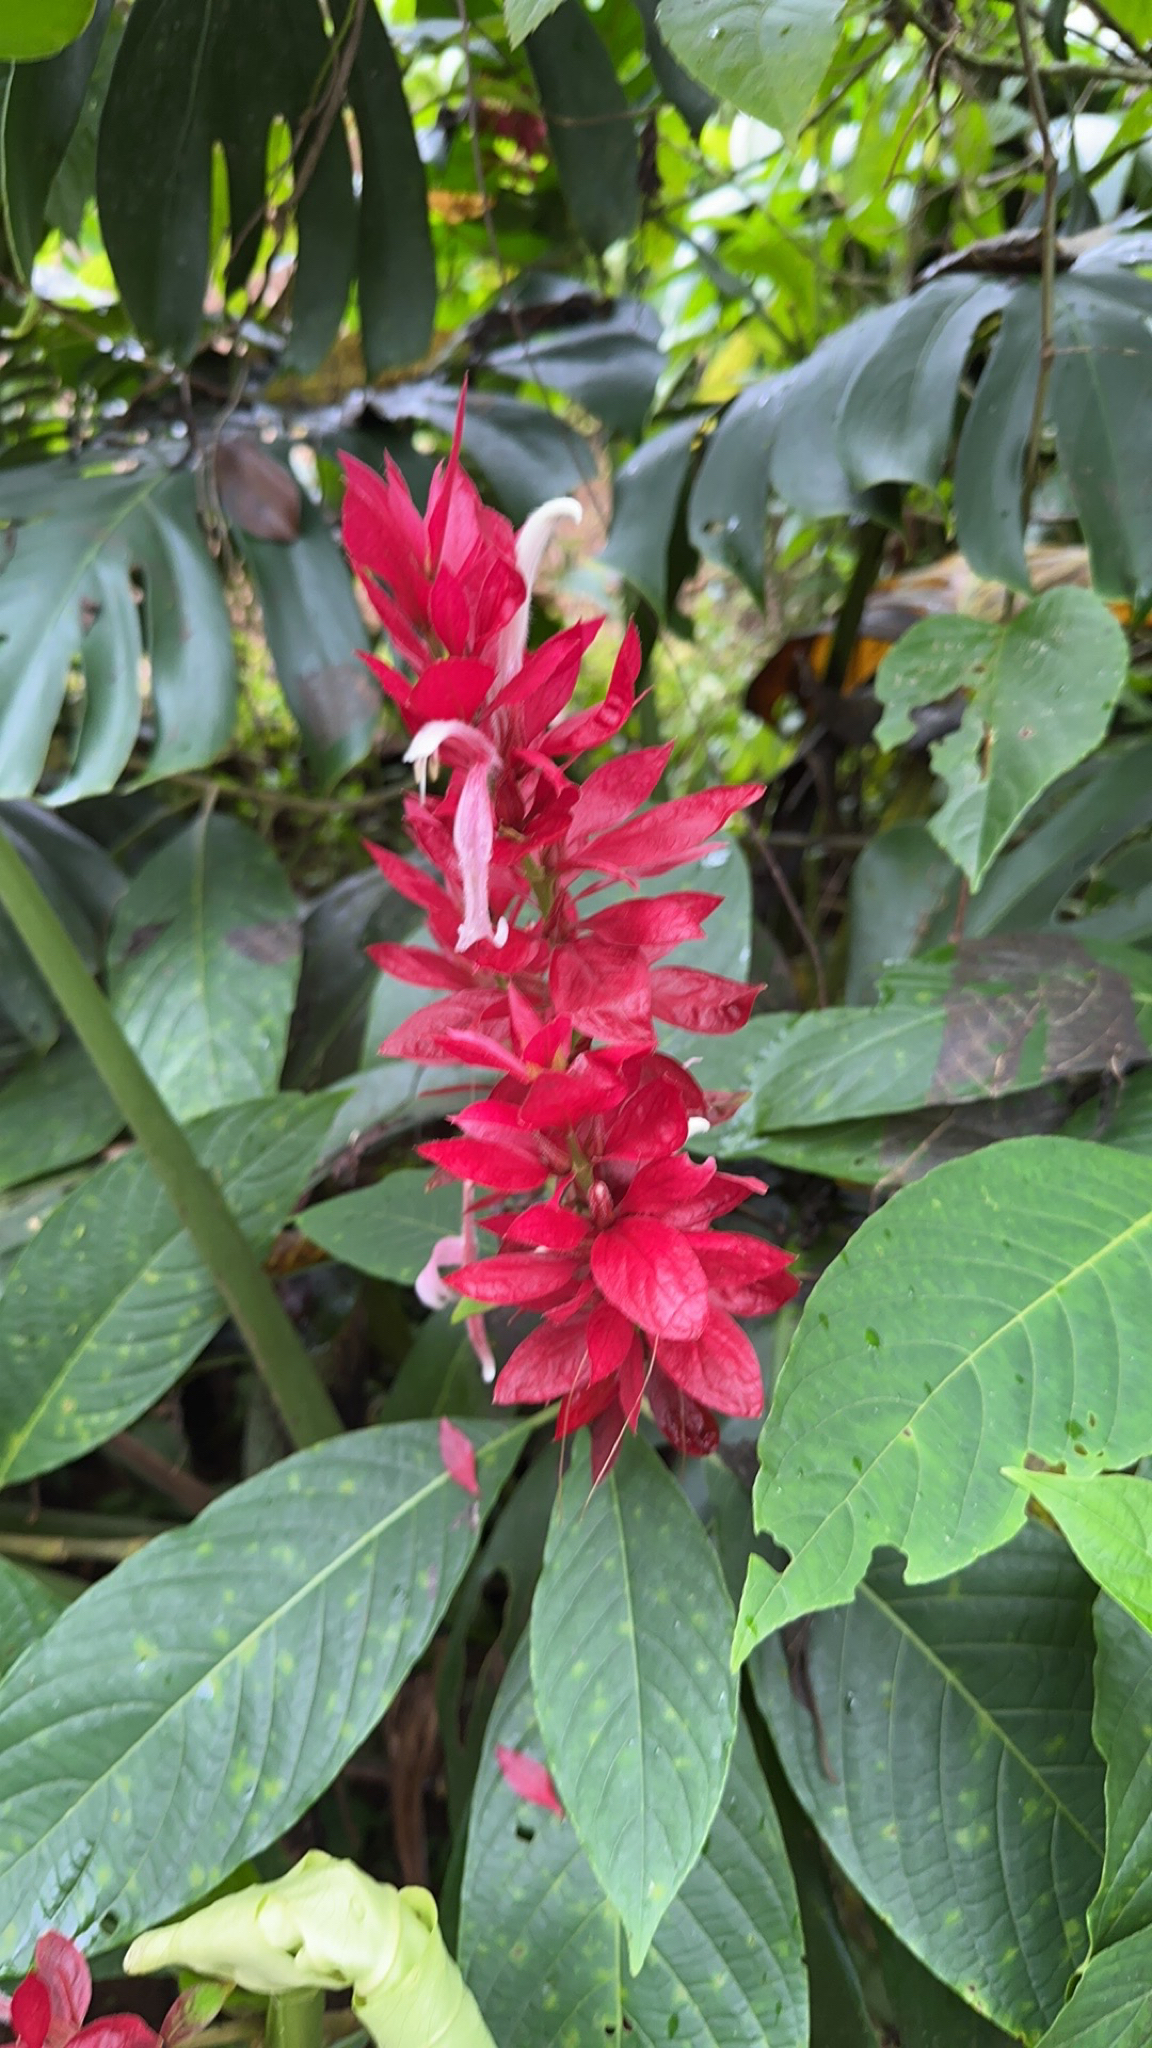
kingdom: Plantae
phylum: Tracheophyta
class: Magnoliopsida
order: Lamiales
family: Acanthaceae
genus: Megaskepasma
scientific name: Megaskepasma erythrochlamys
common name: Brazilian red-cloak
